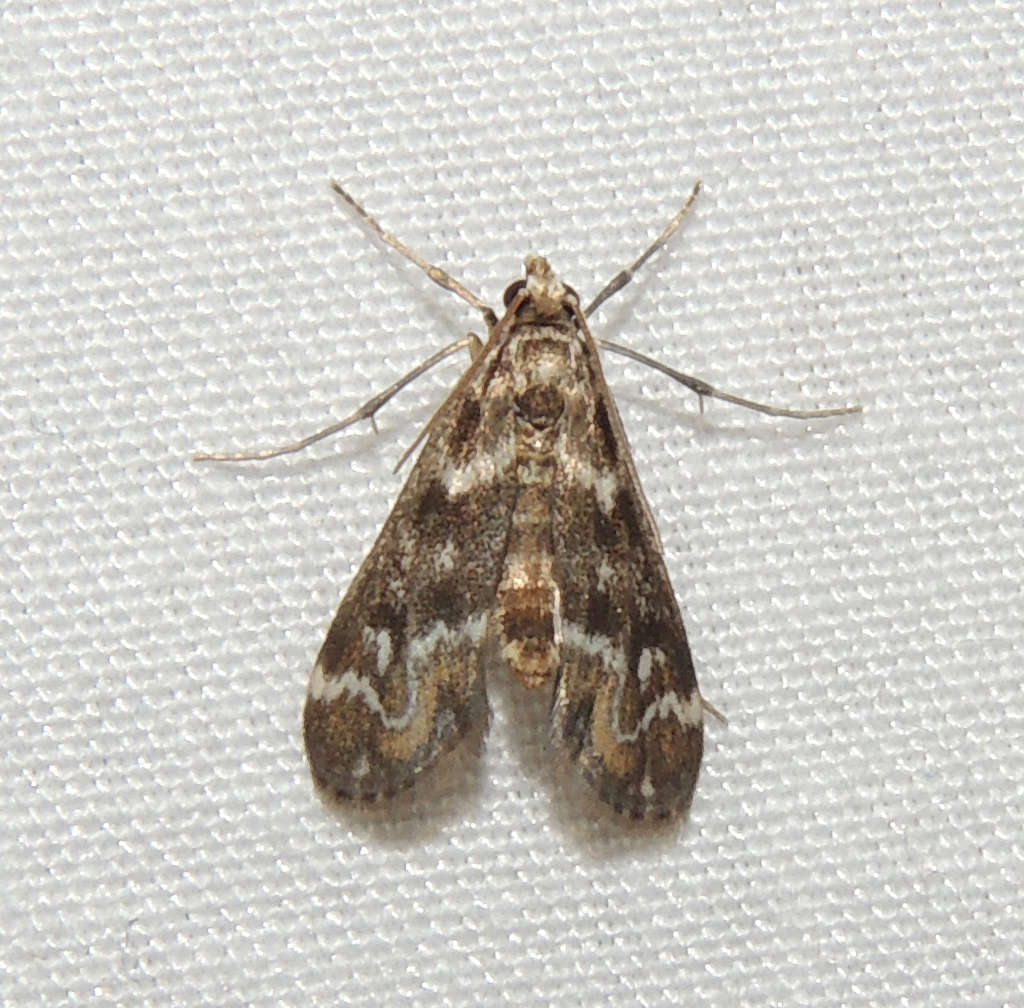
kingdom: Animalia
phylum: Arthropoda
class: Insecta
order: Lepidoptera
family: Crambidae
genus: Hygraula
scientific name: Hygraula nitens
